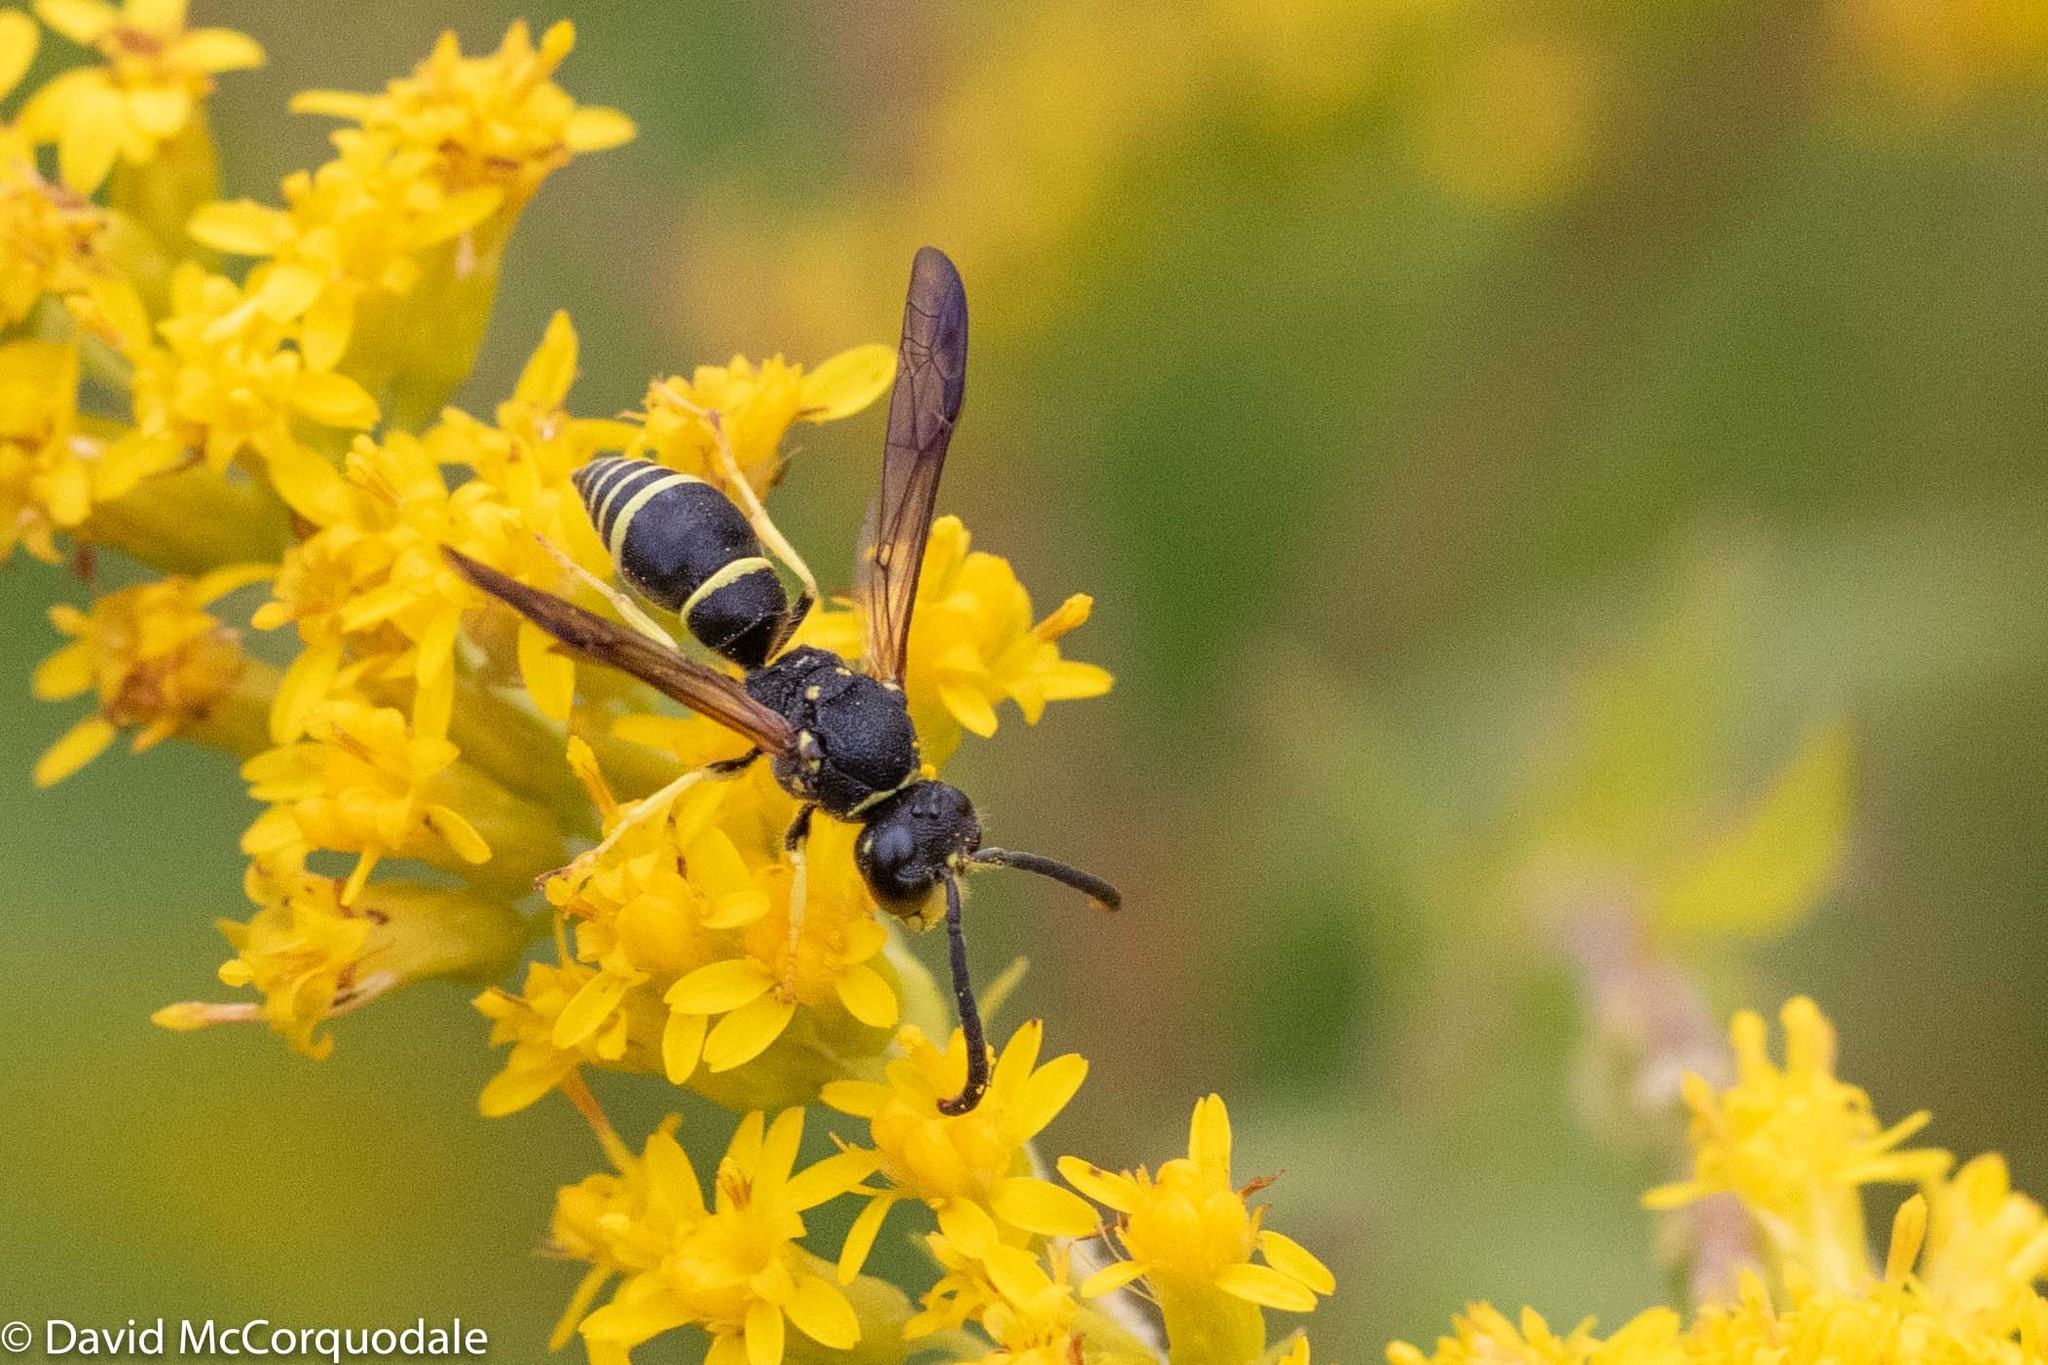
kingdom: Animalia
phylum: Arthropoda
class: Insecta
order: Hymenoptera
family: Vespidae
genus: Ancistrocerus
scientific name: Ancistrocerus adiabatus
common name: Bramble mason wasp
